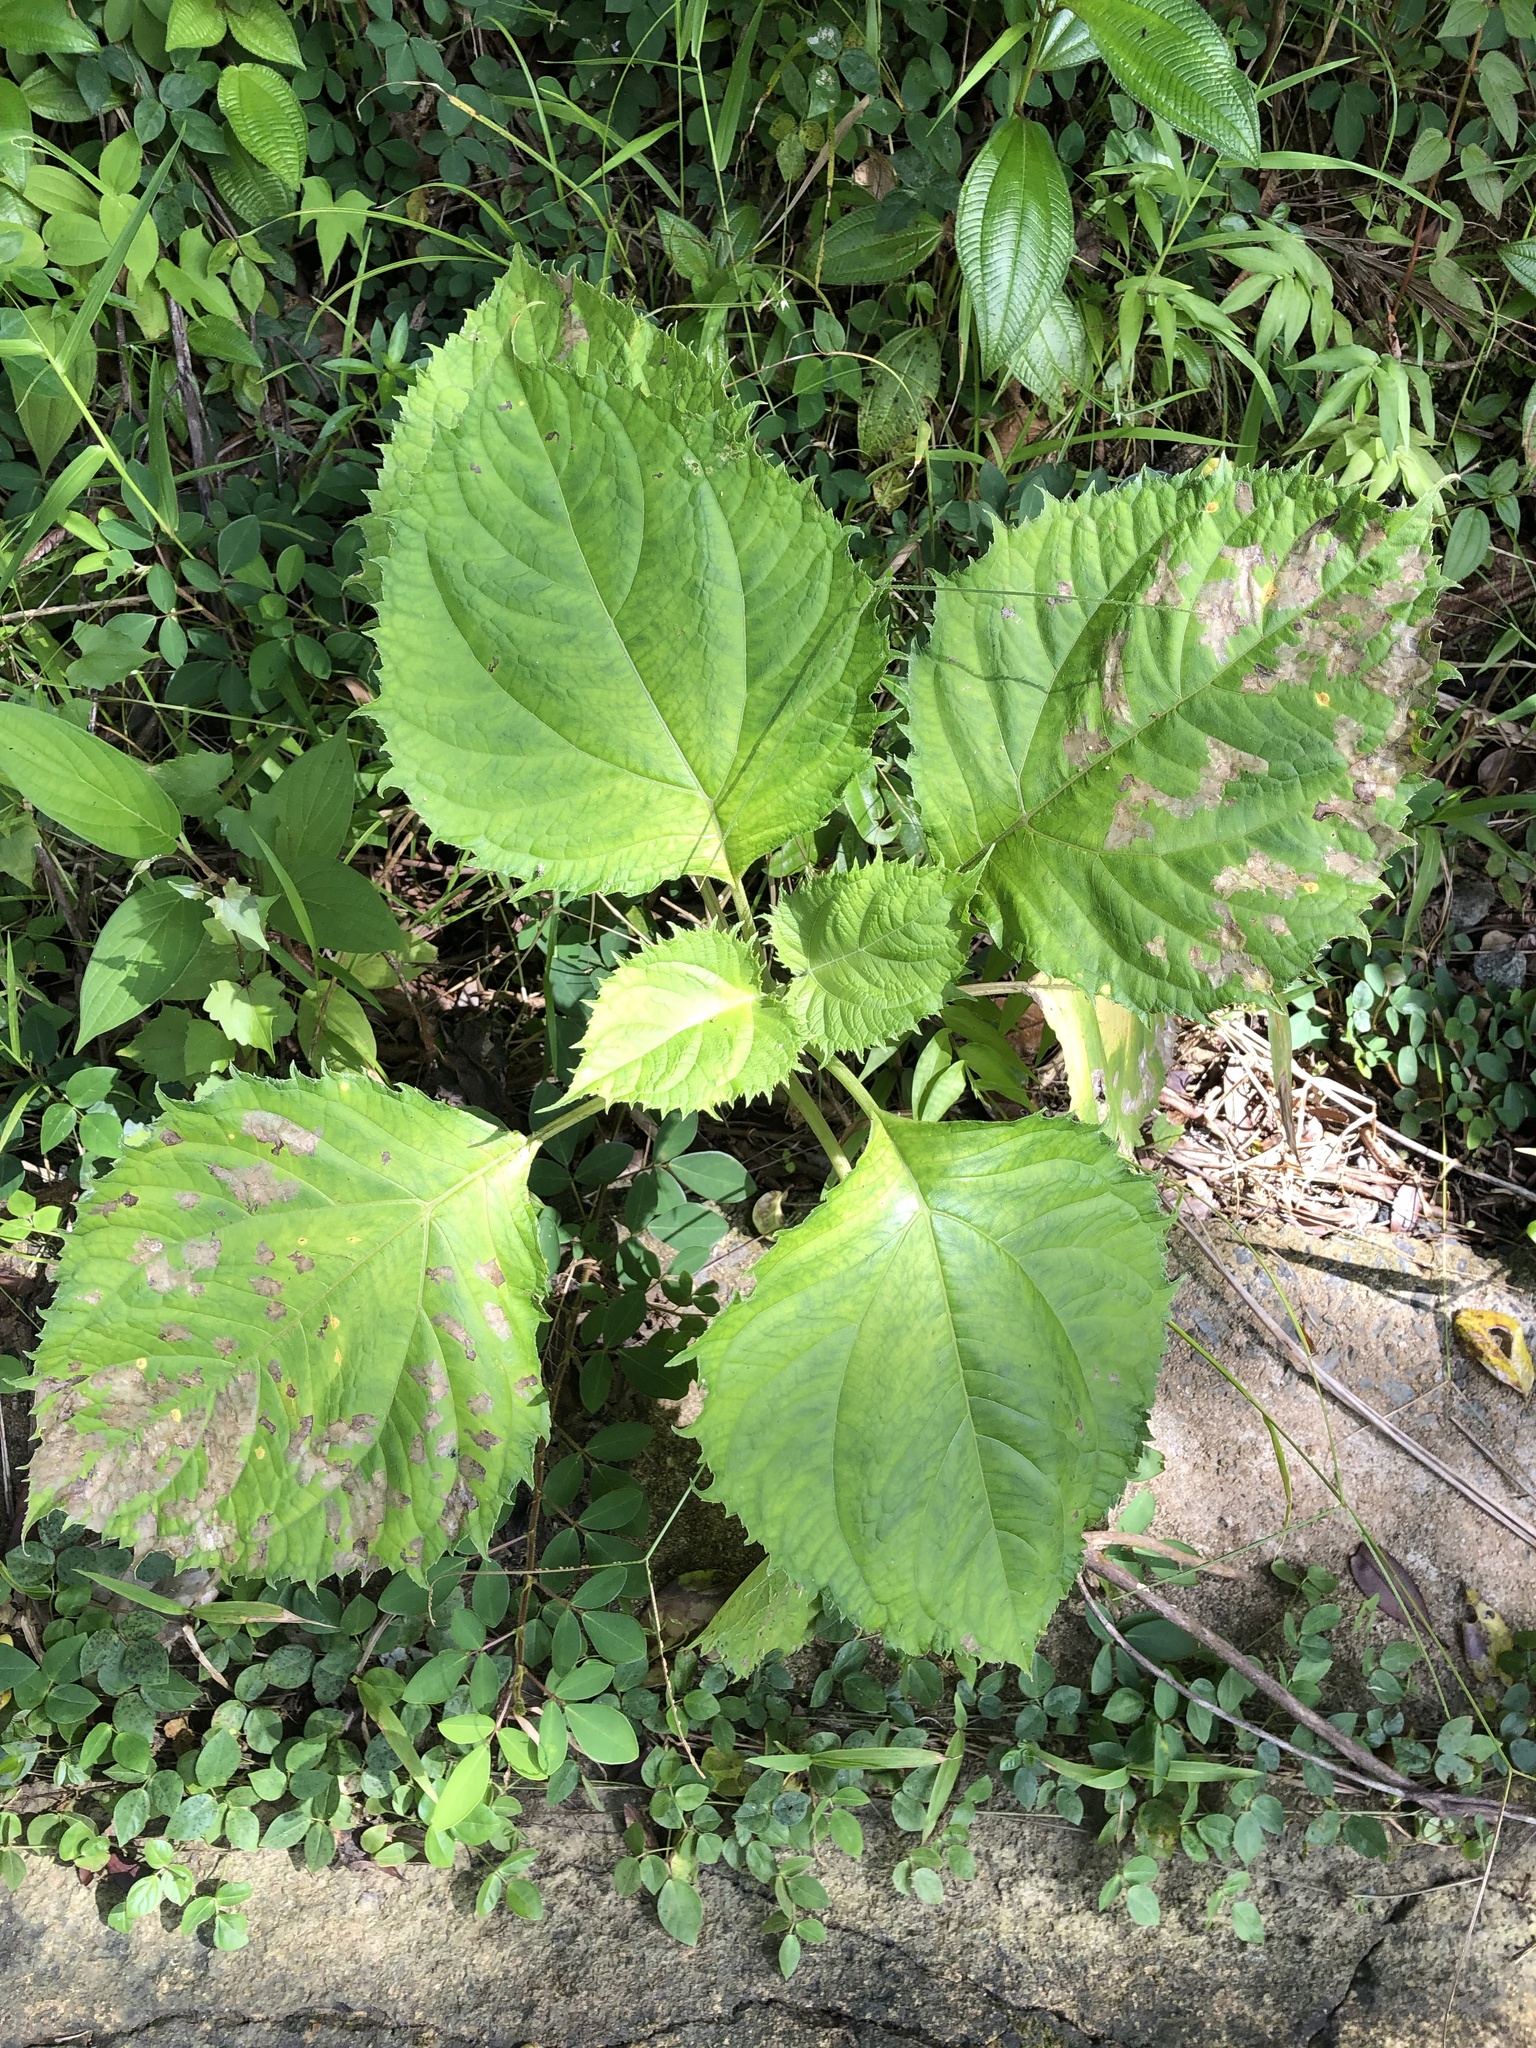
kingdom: Plantae
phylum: Tracheophyta
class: Magnoliopsida
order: Asterales
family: Asteraceae
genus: Clibadium
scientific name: Clibadium erosum
